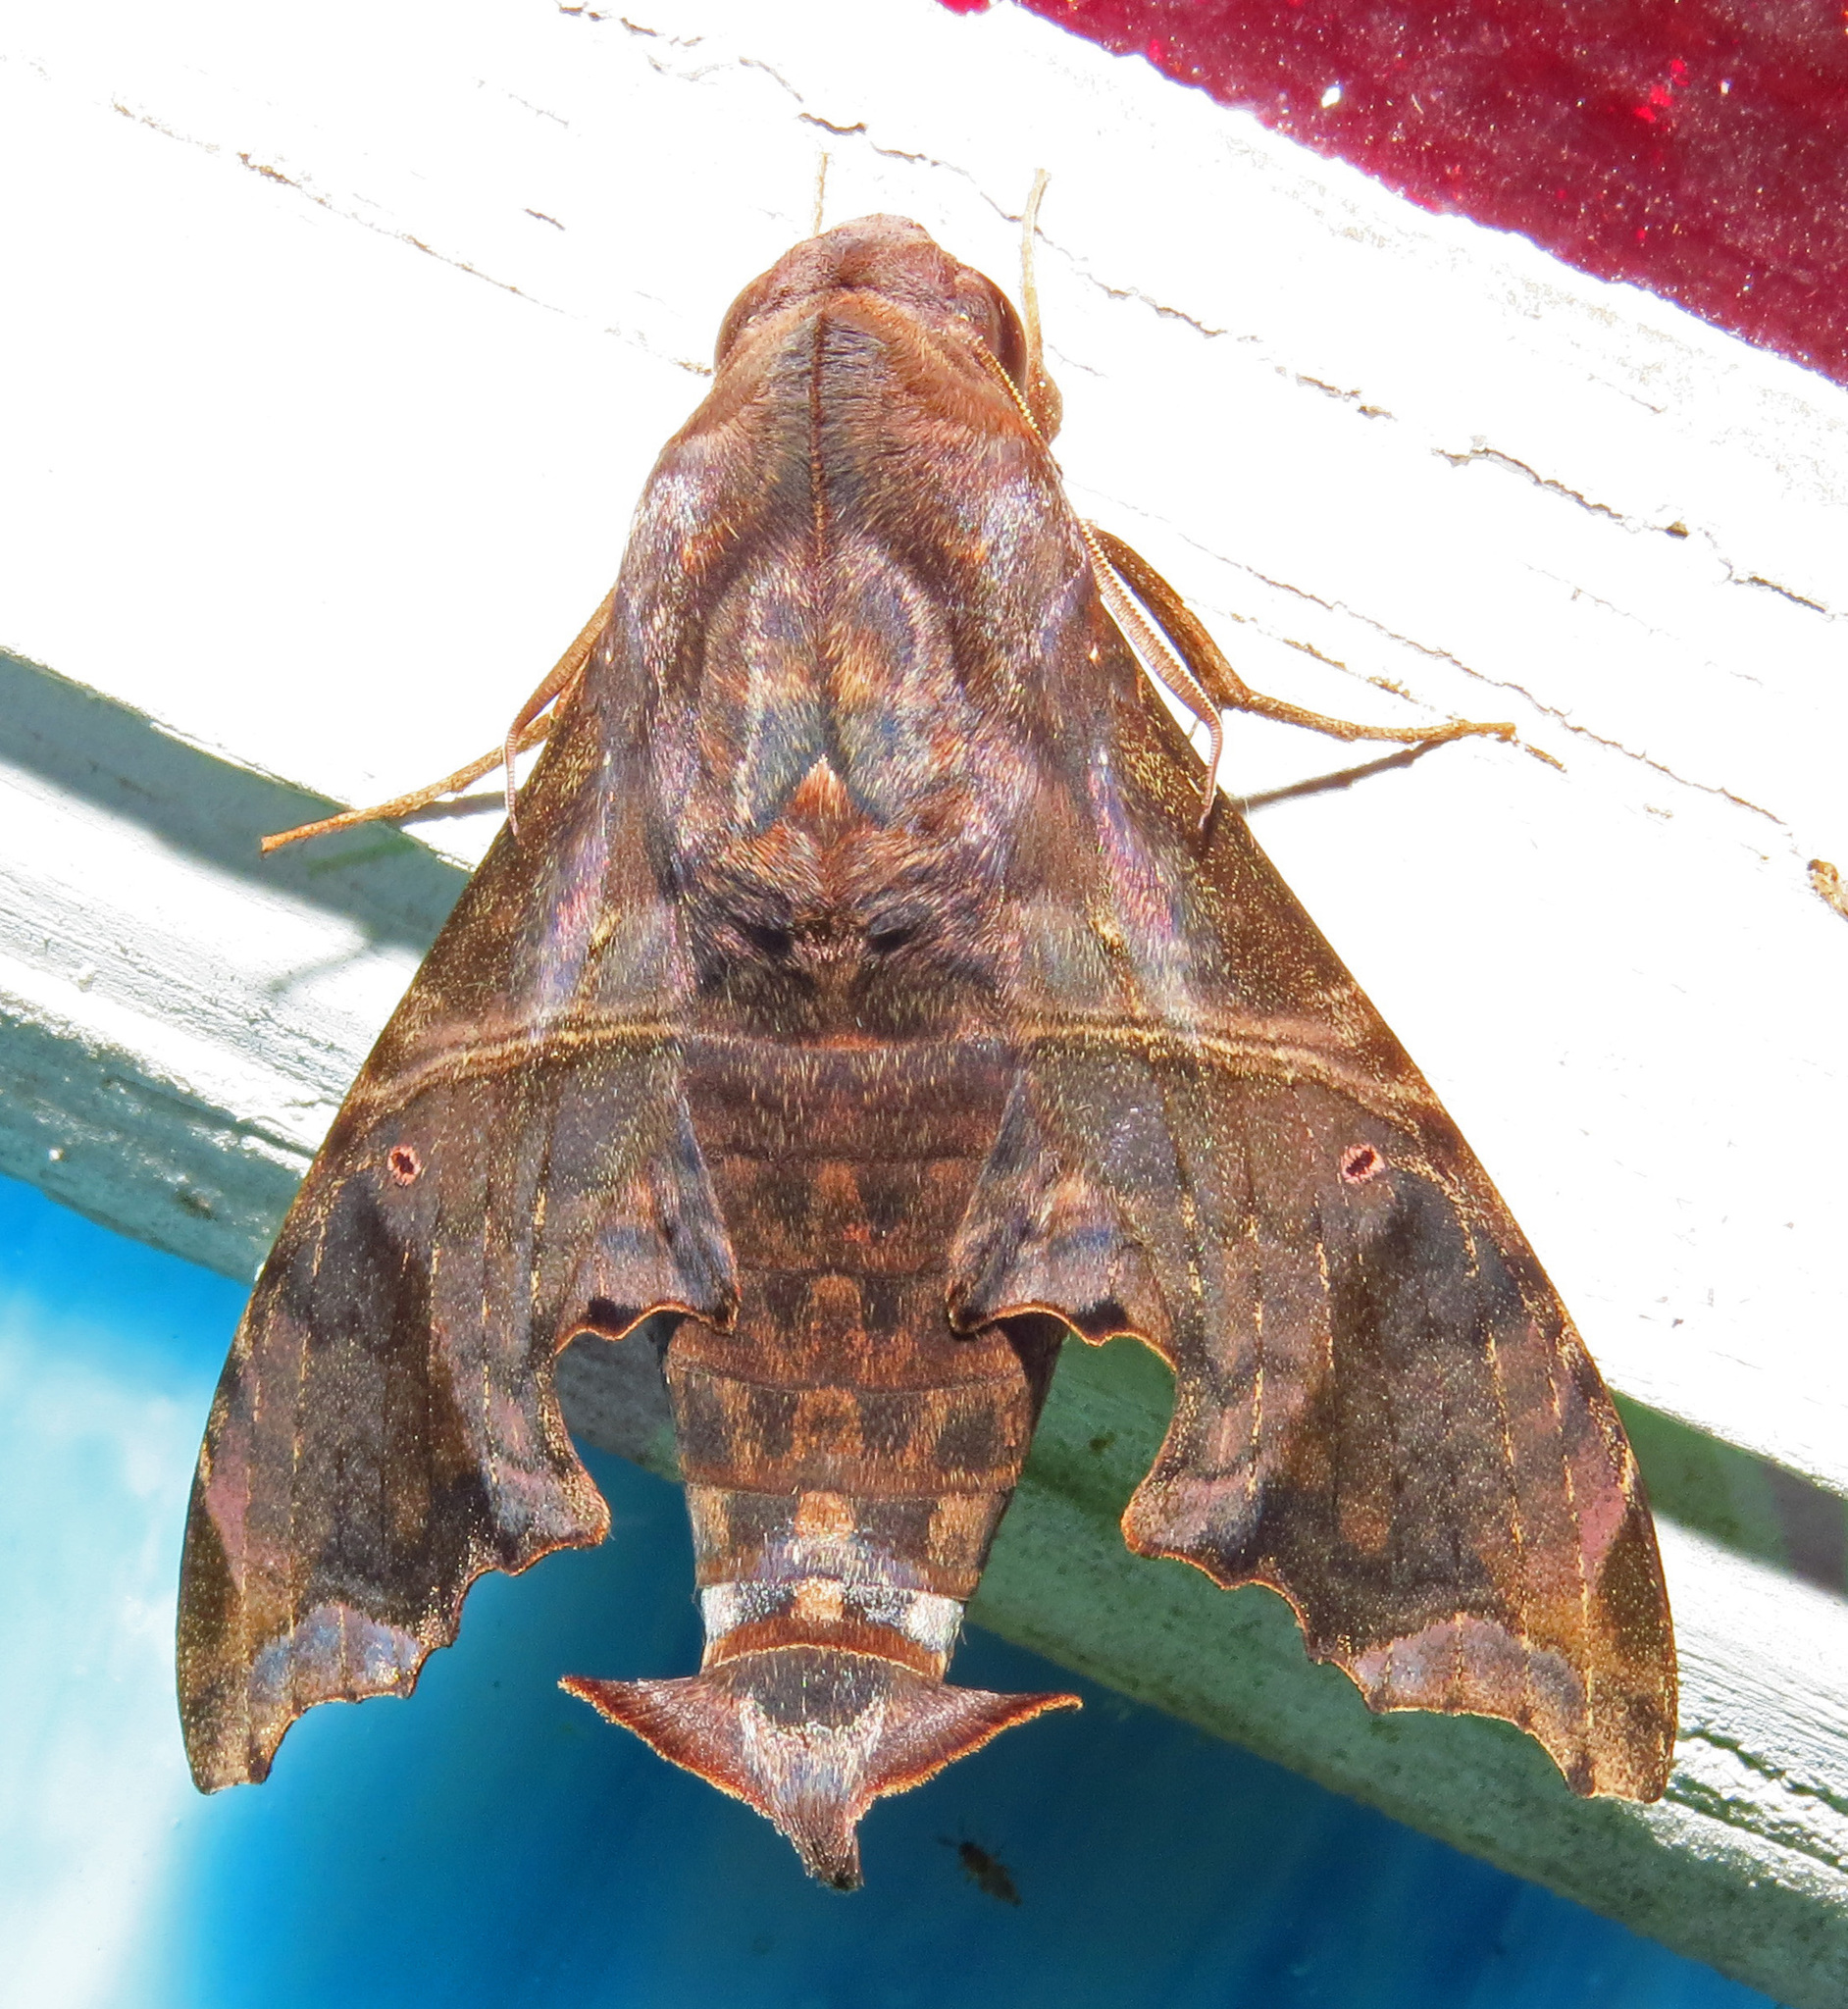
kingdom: Animalia
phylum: Arthropoda
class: Insecta
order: Lepidoptera
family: Sphingidae
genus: Enyo
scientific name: Enyo lugubris
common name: Mournful sphinx
